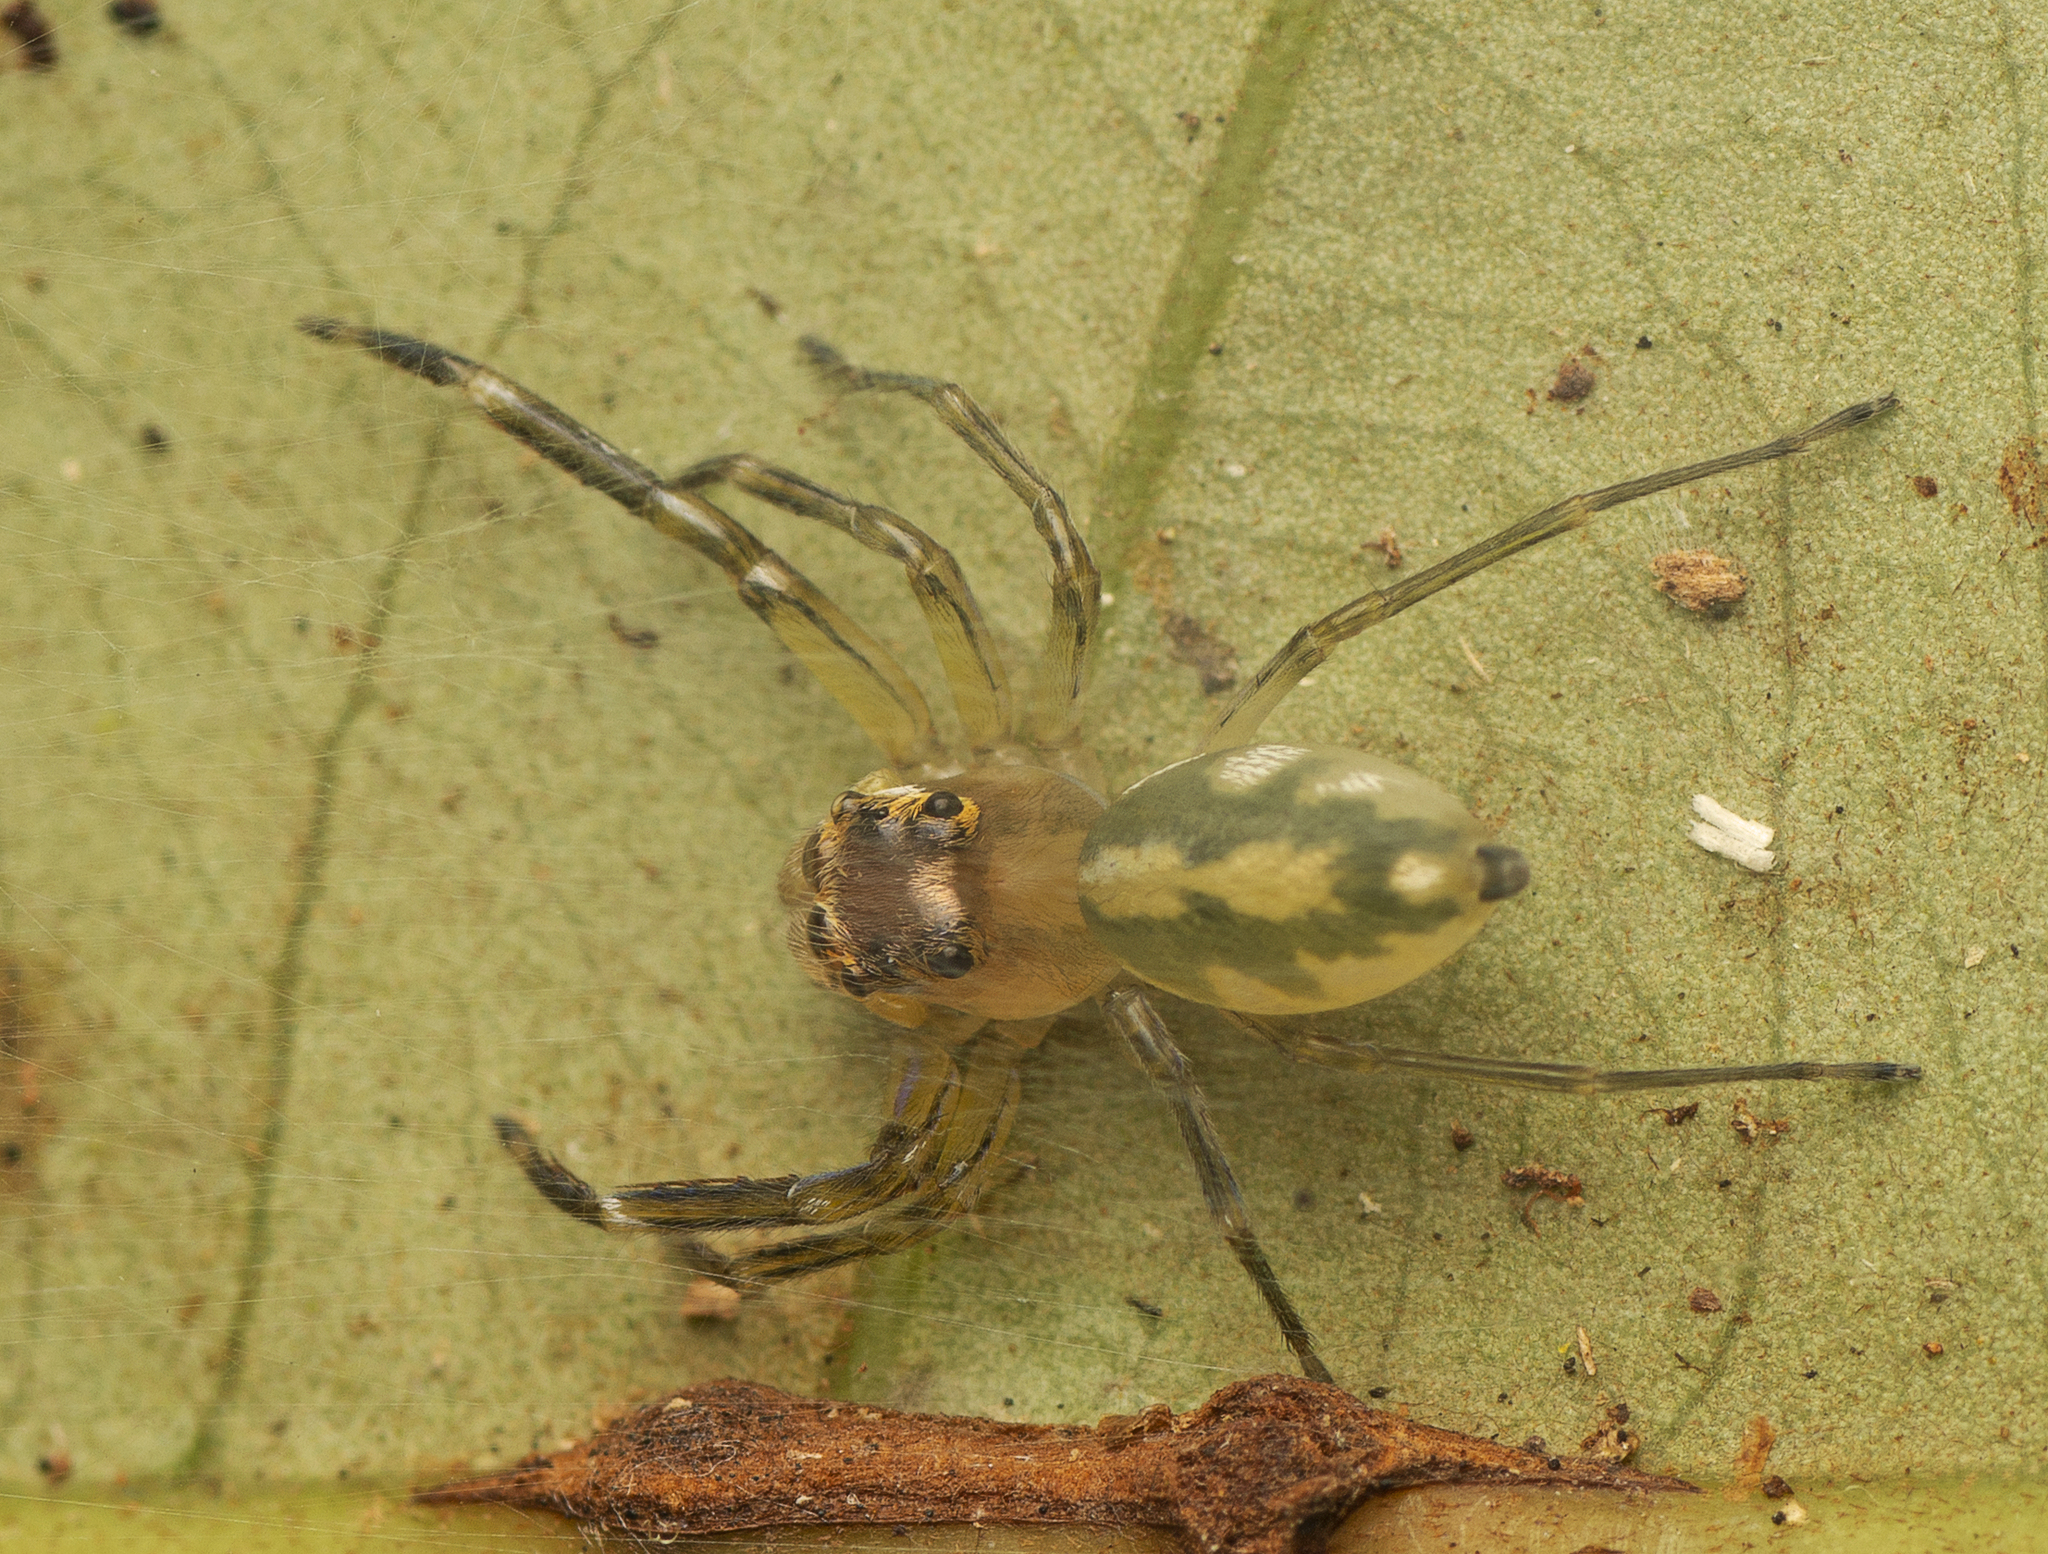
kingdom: Animalia
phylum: Arthropoda
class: Arachnida
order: Araneae
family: Salticidae
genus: Tauala
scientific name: Tauala lepidus
